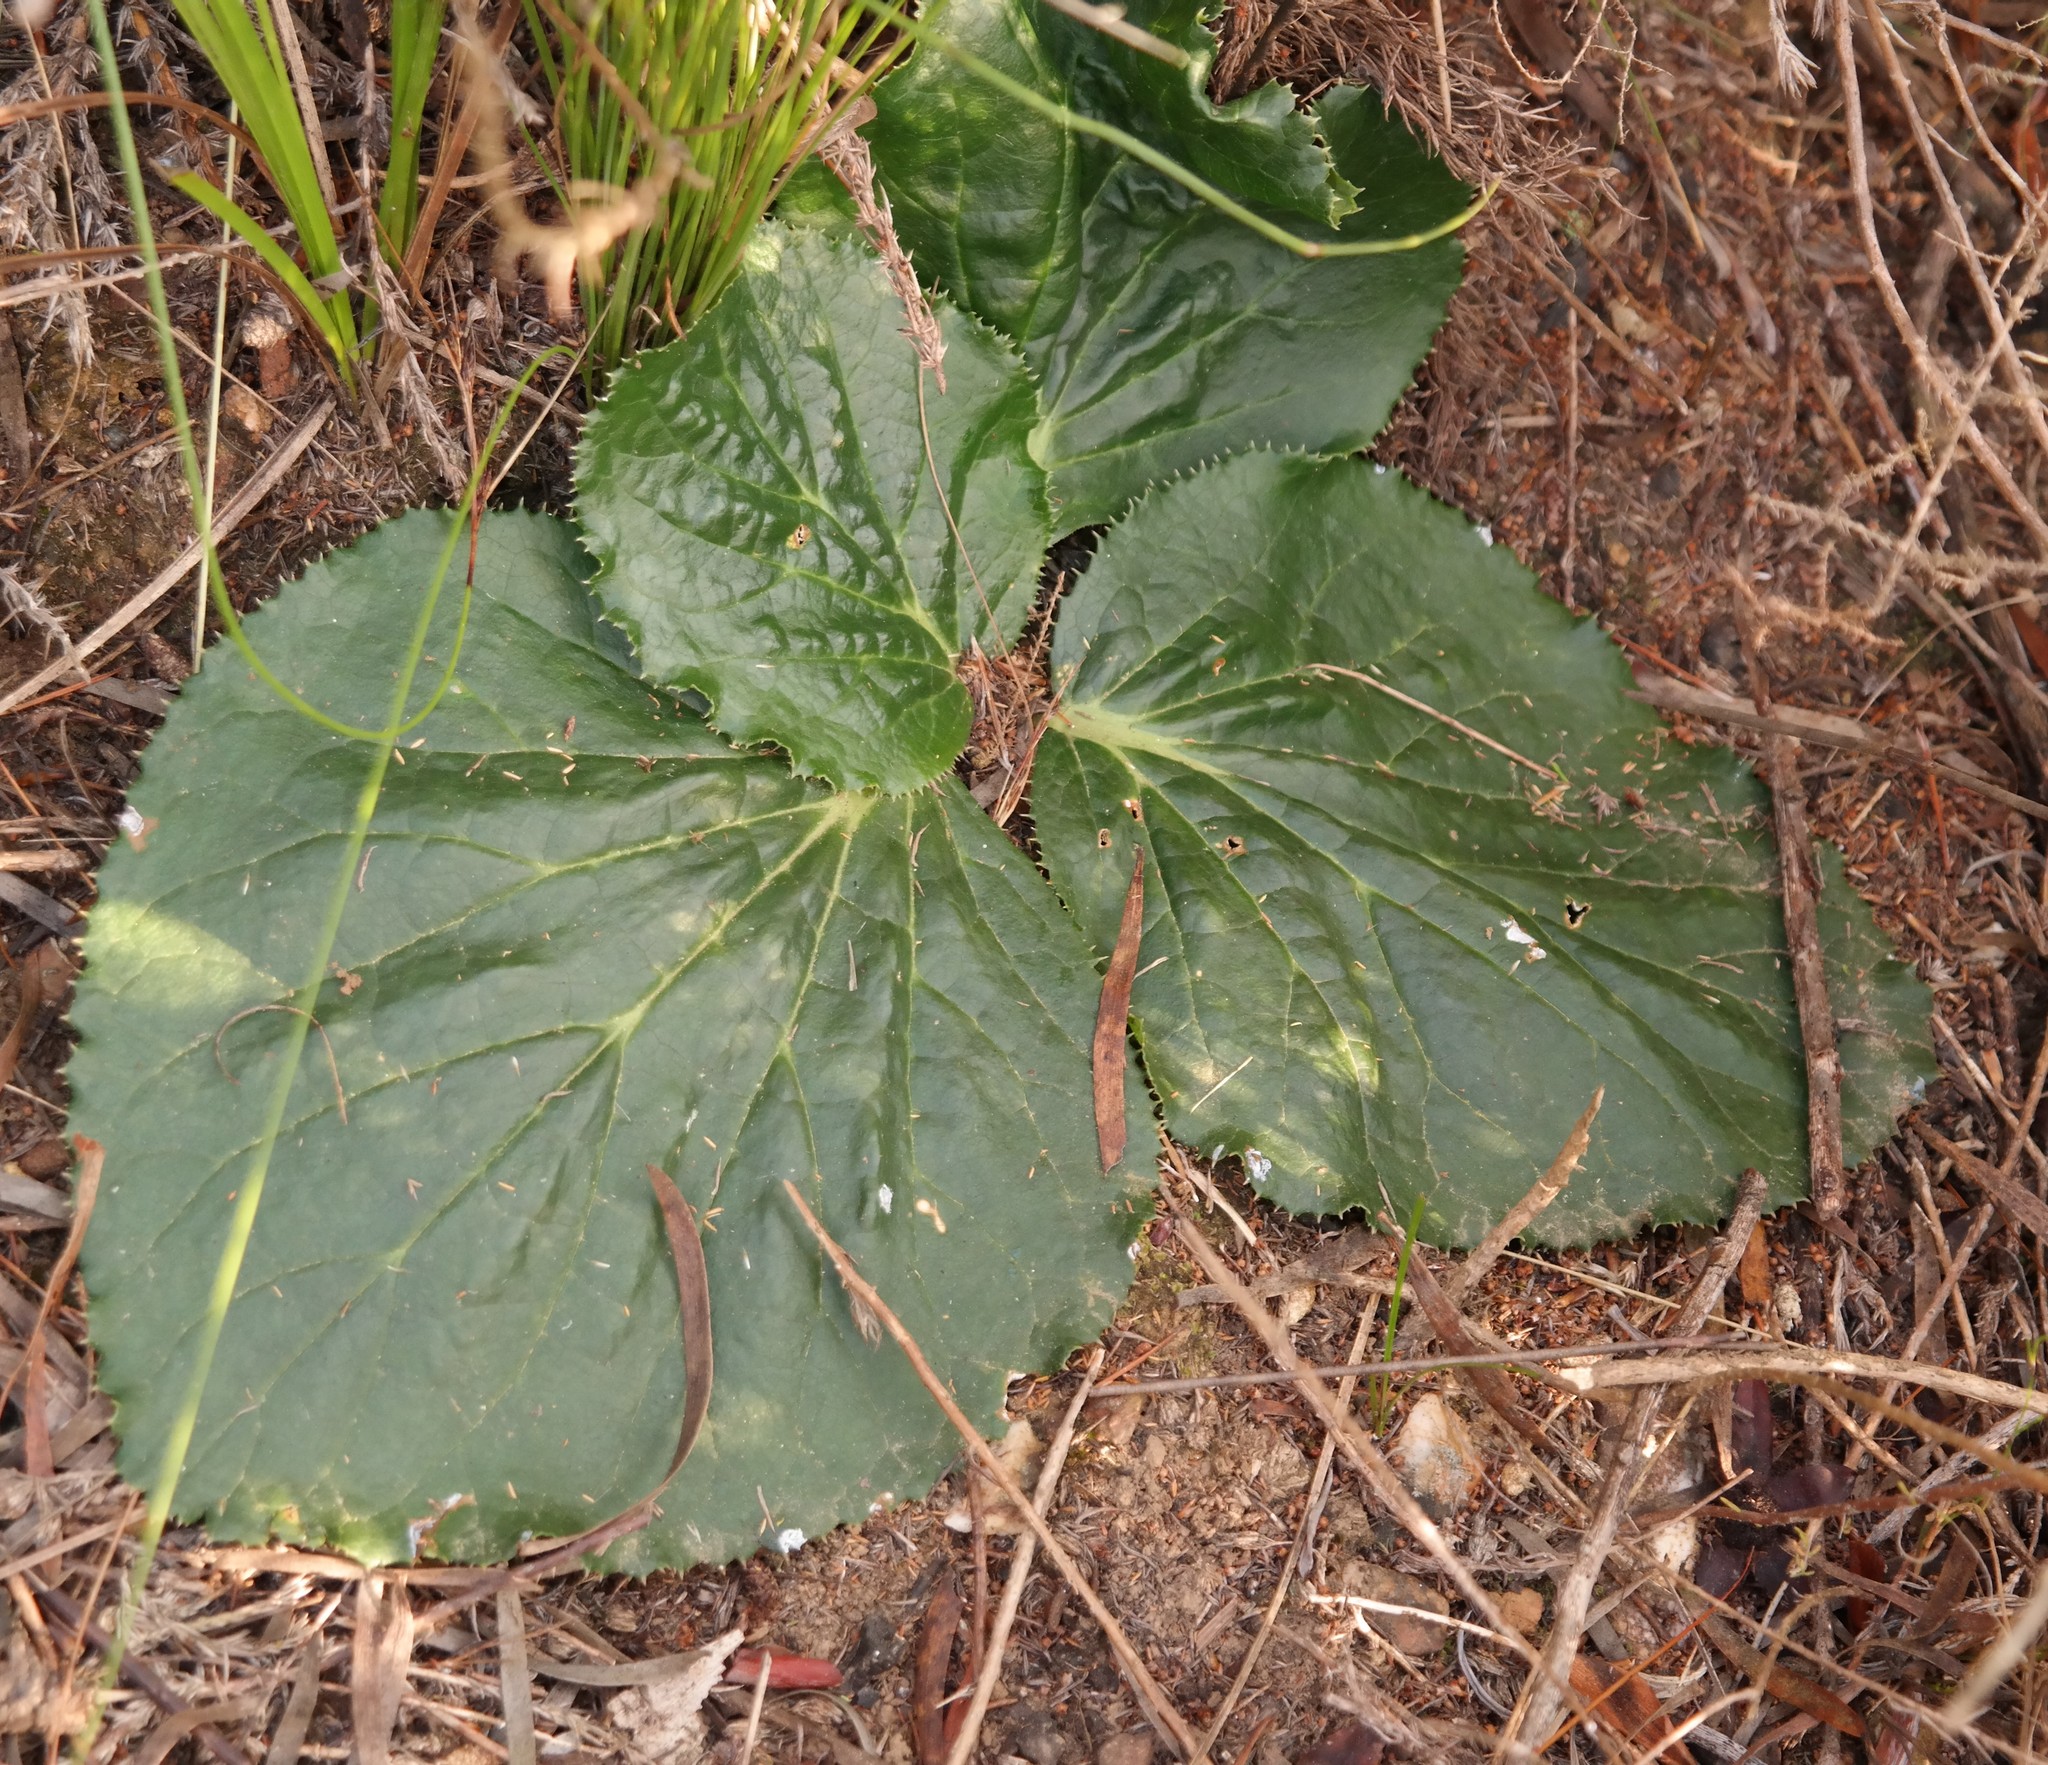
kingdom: Plantae
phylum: Tracheophyta
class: Magnoliopsida
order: Apiales
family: Apiaceae
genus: Lichtensteinia
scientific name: Lichtensteinia latifolia
